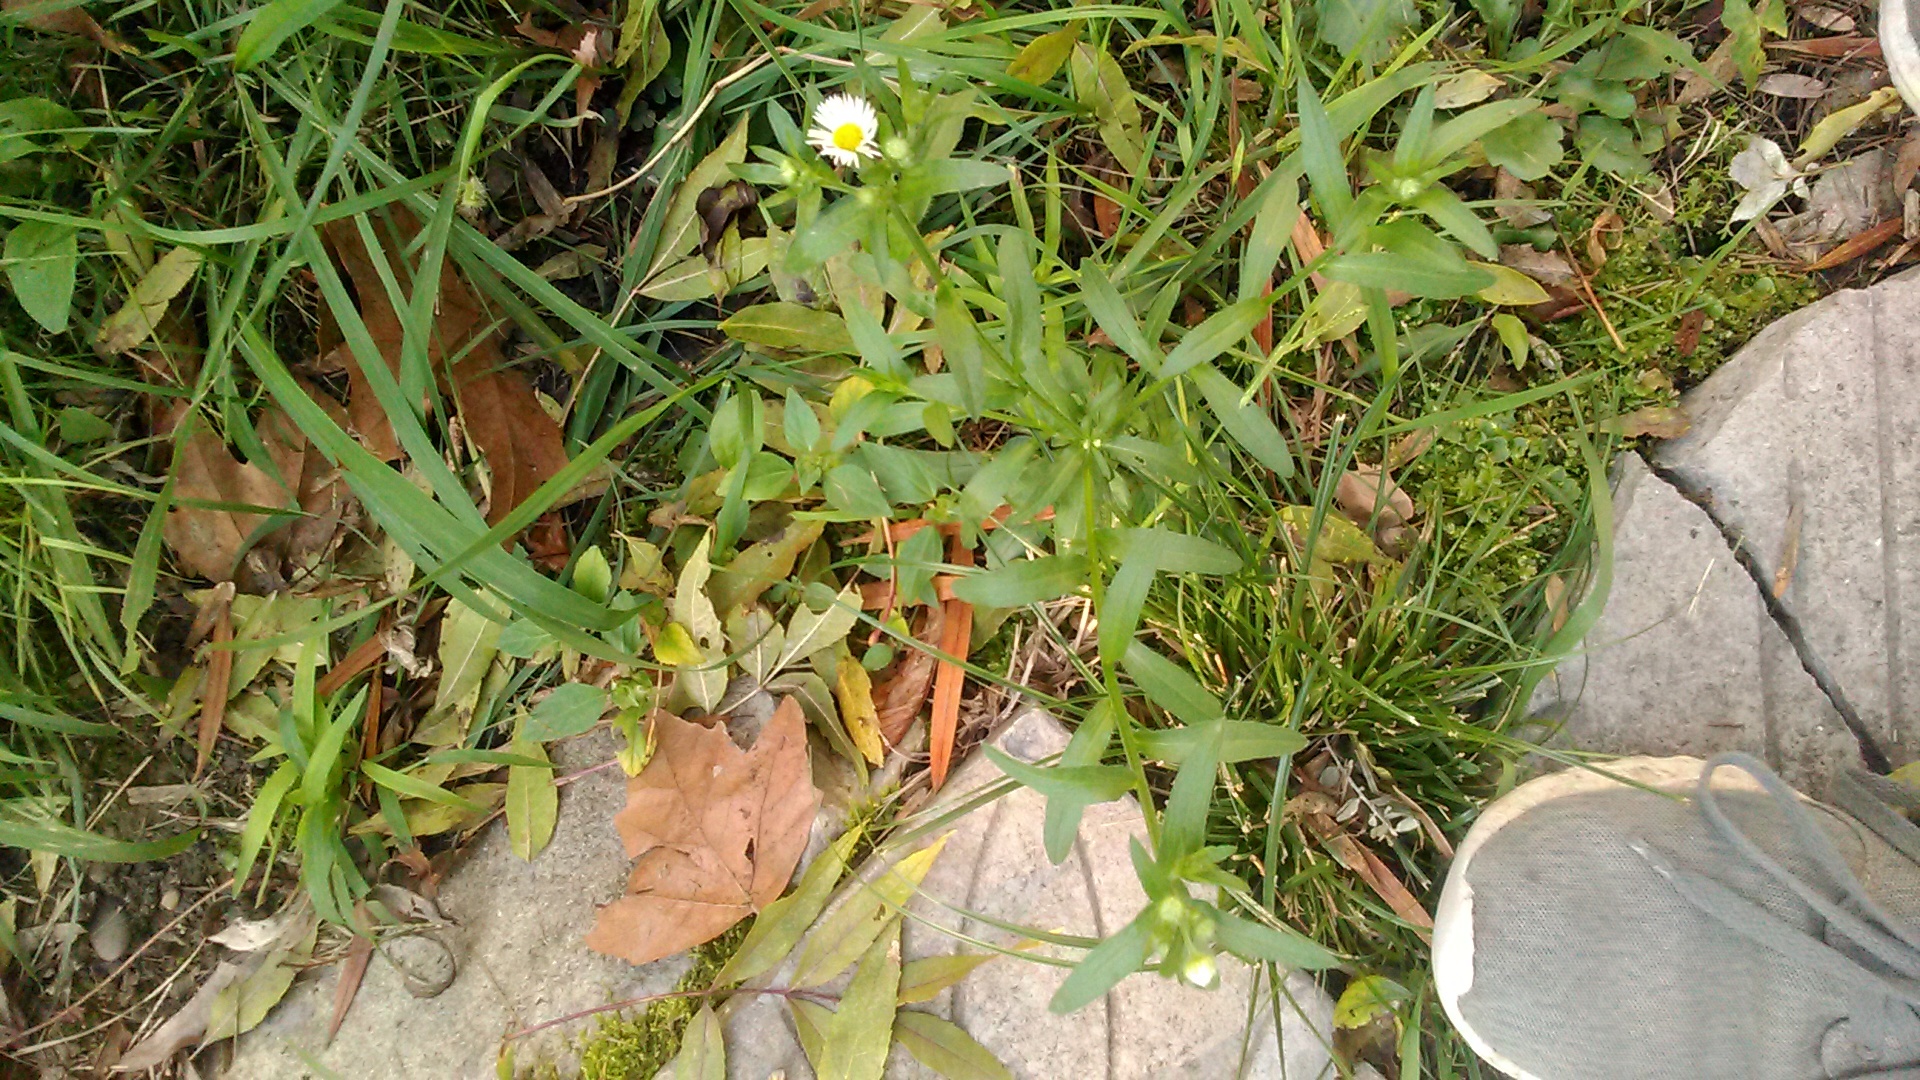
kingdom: Plantae
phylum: Tracheophyta
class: Magnoliopsida
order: Asterales
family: Asteraceae
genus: Erigeron
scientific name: Erigeron annuus
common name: Tall fleabane
